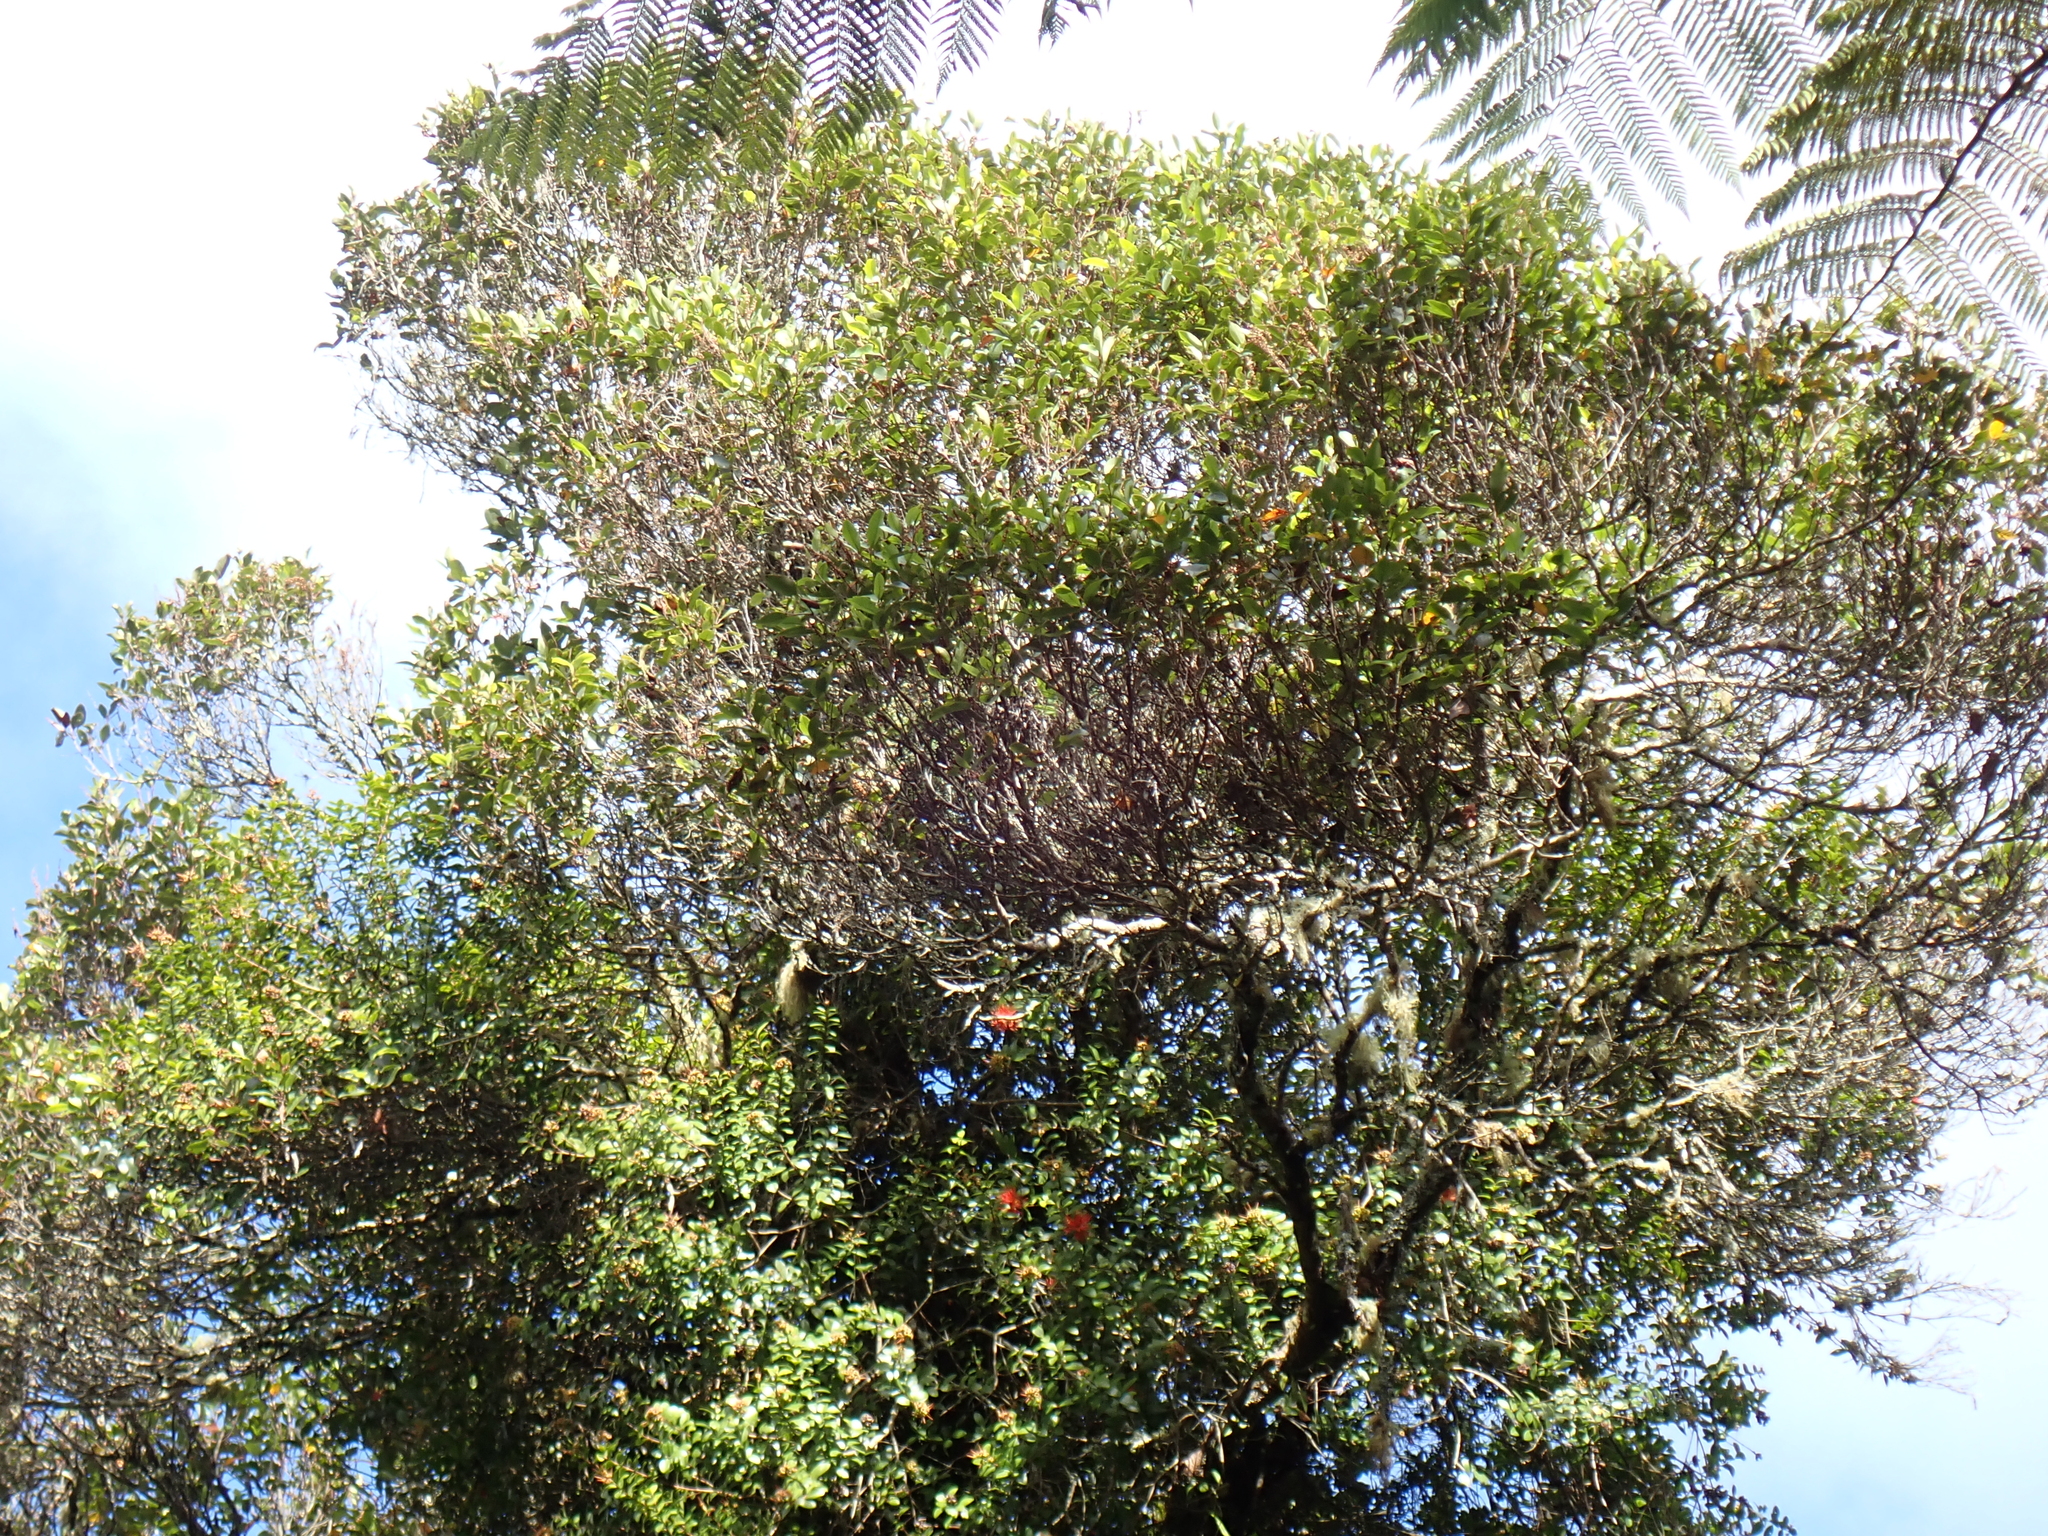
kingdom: Plantae
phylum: Tracheophyta
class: Magnoliopsida
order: Myrtales
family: Myrtaceae
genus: Metrosideros
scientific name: Metrosideros fulgens
